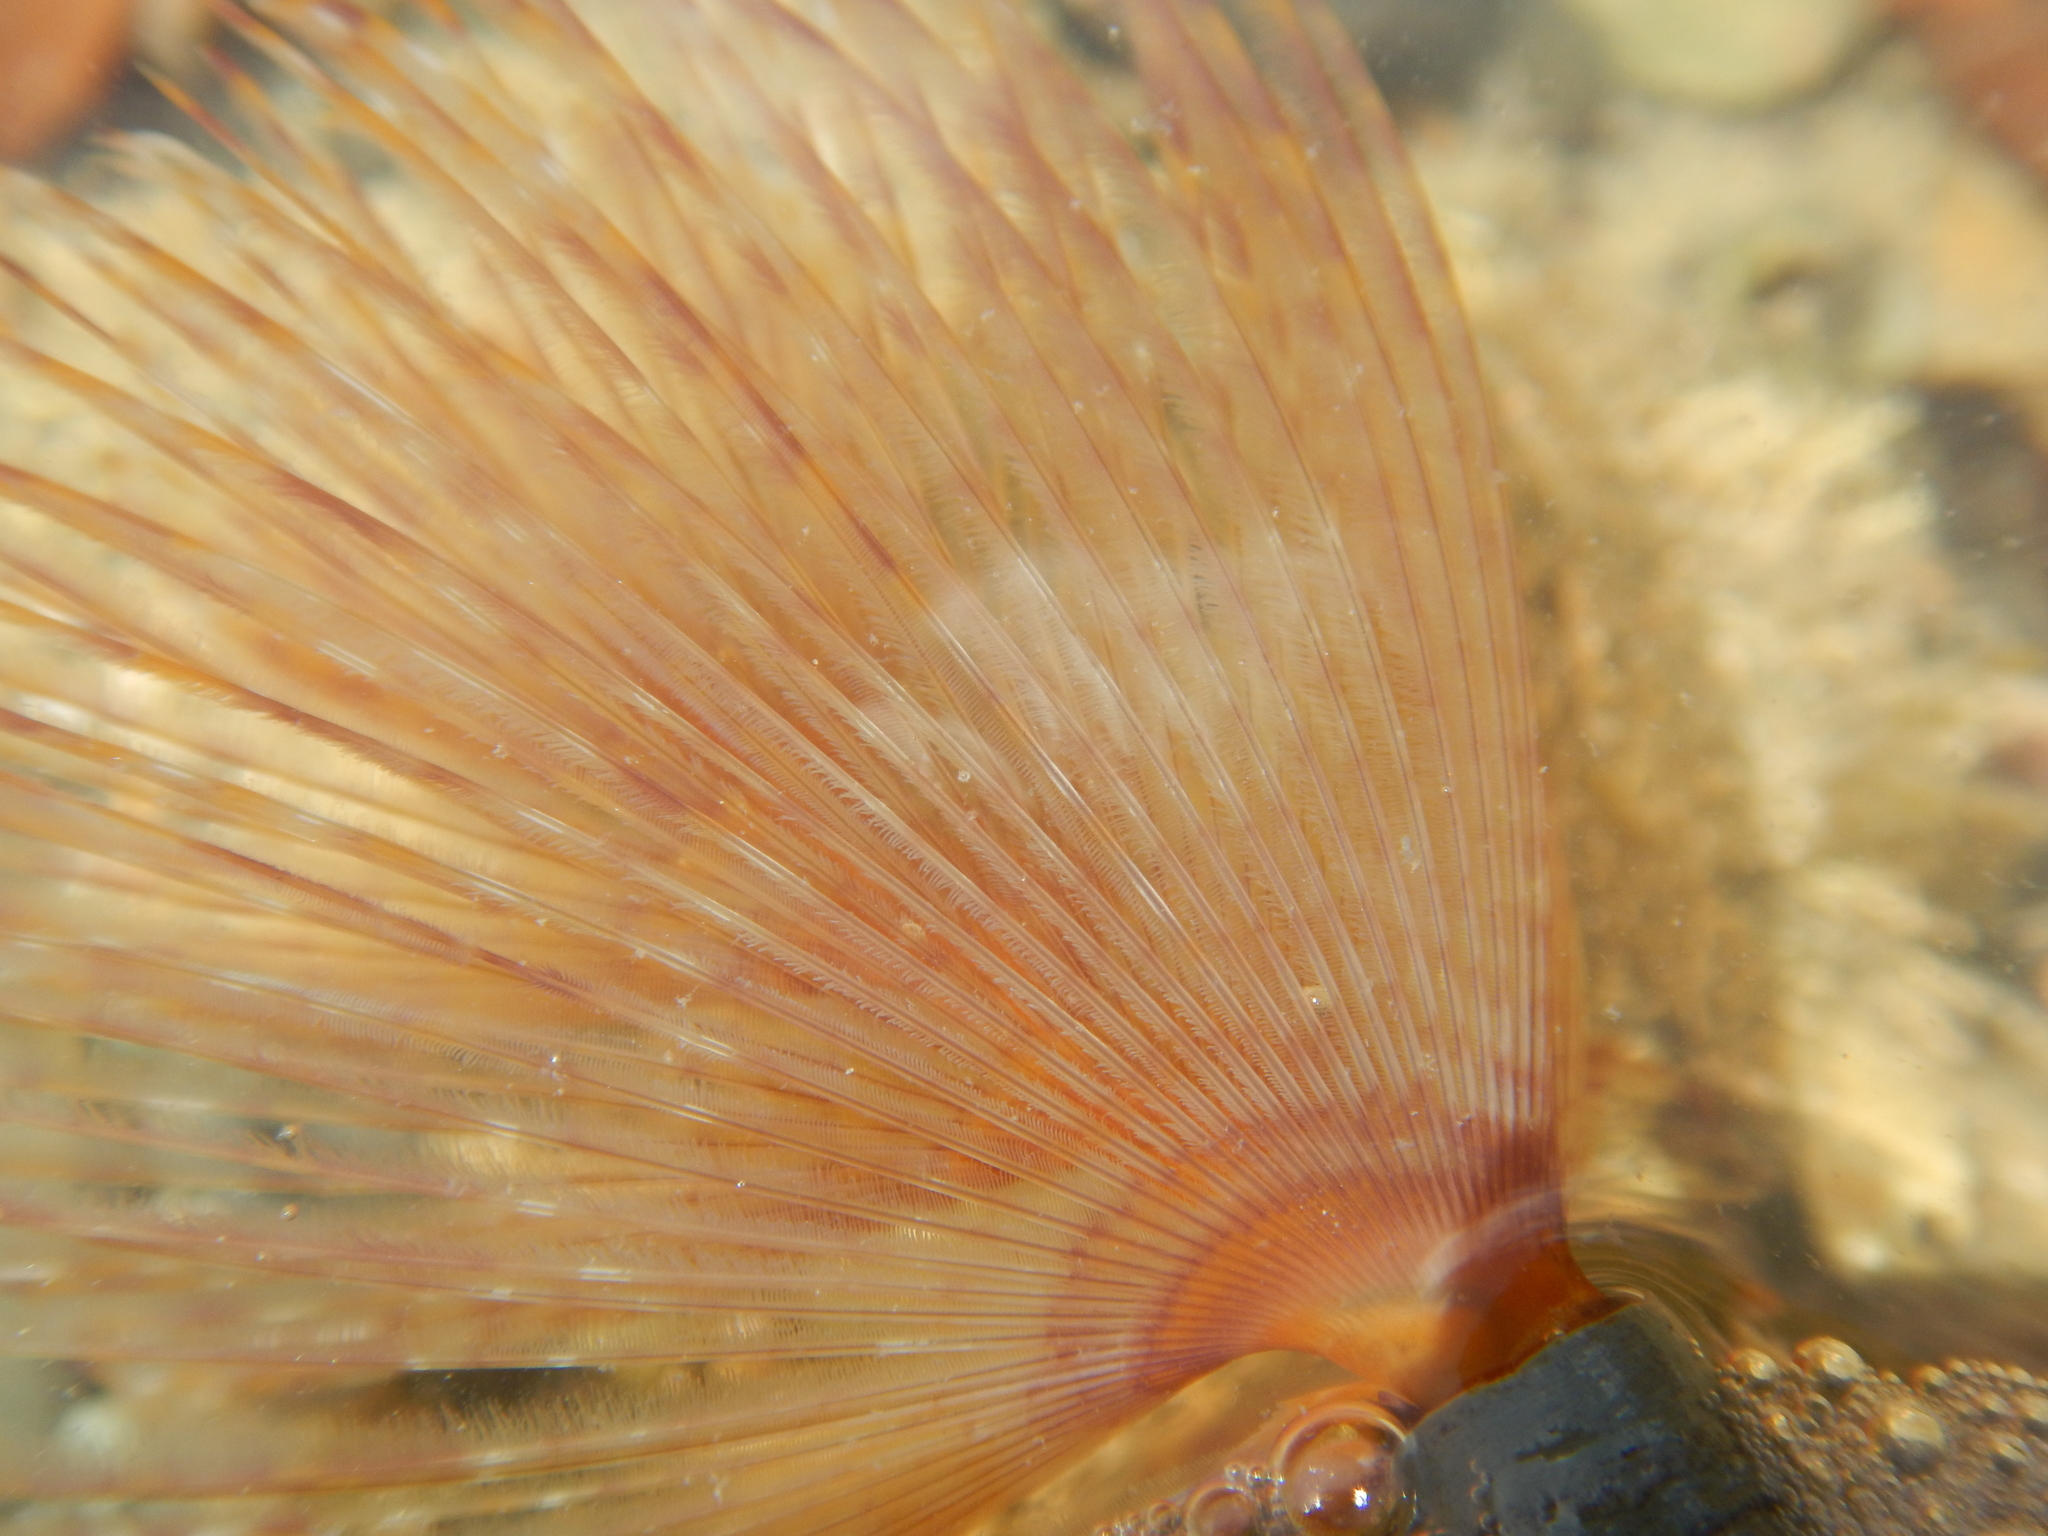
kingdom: Animalia
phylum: Annelida
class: Polychaeta
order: Sabellida
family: Sabellidae
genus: Sabella
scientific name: Sabella spallanzanii
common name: Feather duster worm
